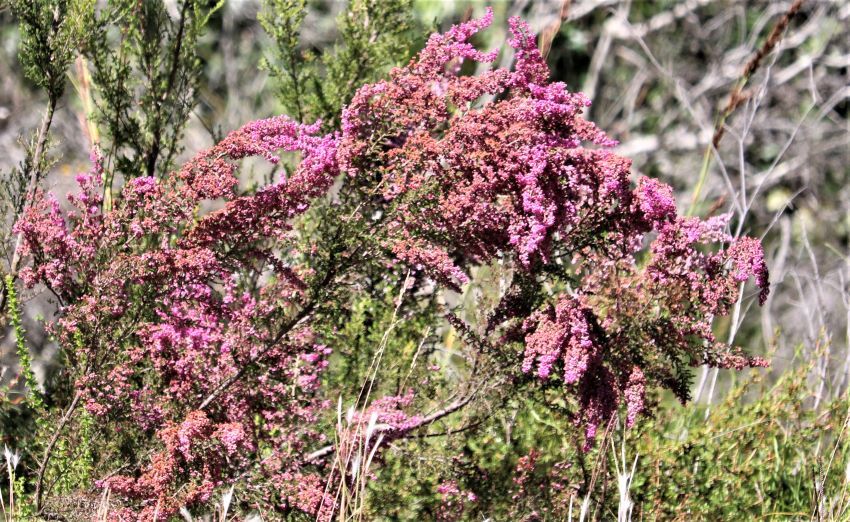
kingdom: Plantae
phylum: Tracheophyta
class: Magnoliopsida
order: Ericales
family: Ericaceae
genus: Erica
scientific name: Erica canaliculata
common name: Hairy grey heather
